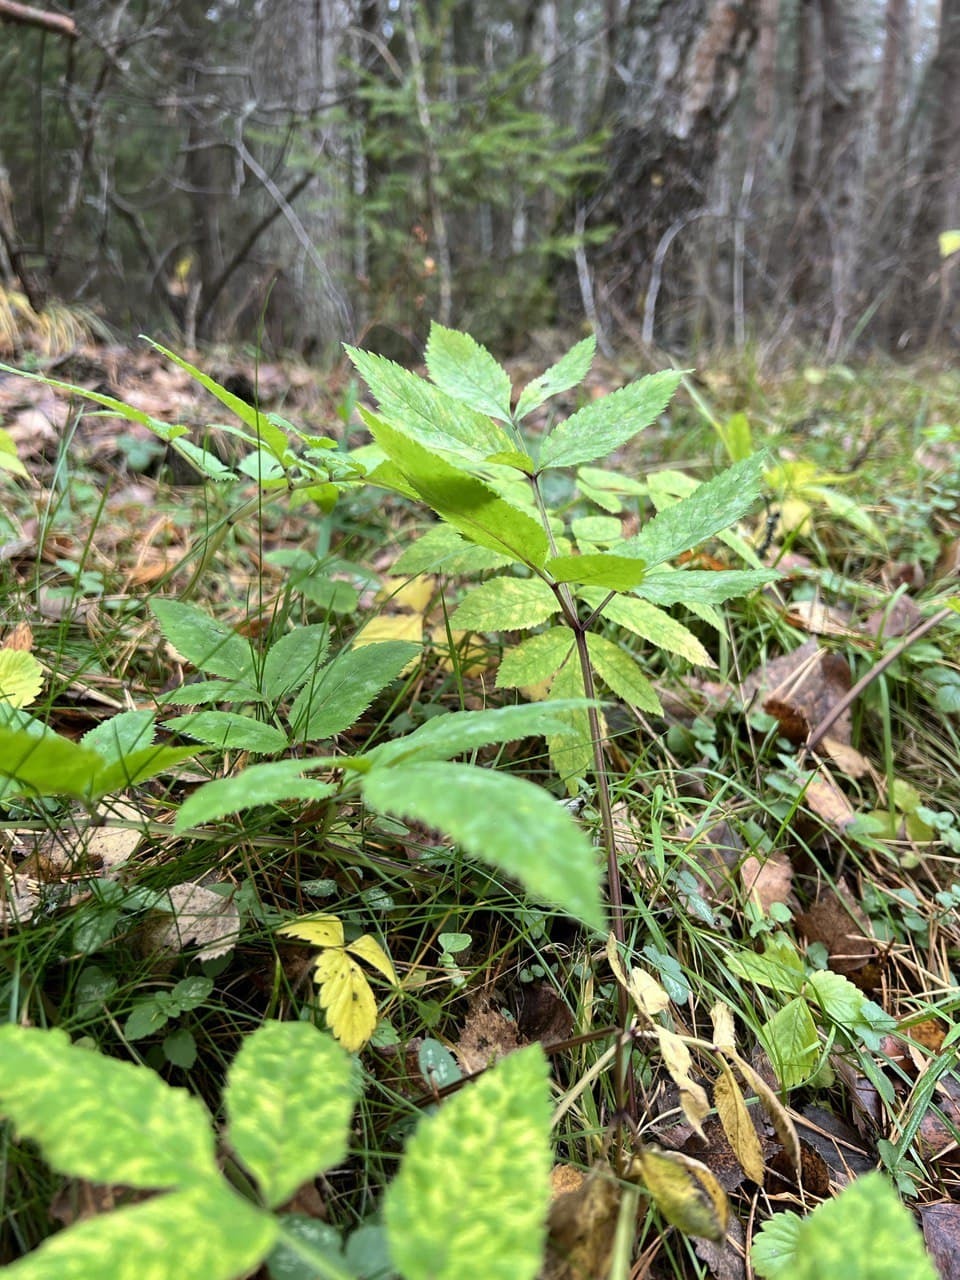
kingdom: Plantae
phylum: Tracheophyta
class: Magnoliopsida
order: Apiales
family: Apiaceae
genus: Aegopodium
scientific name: Aegopodium podagraria
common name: Ground-elder
